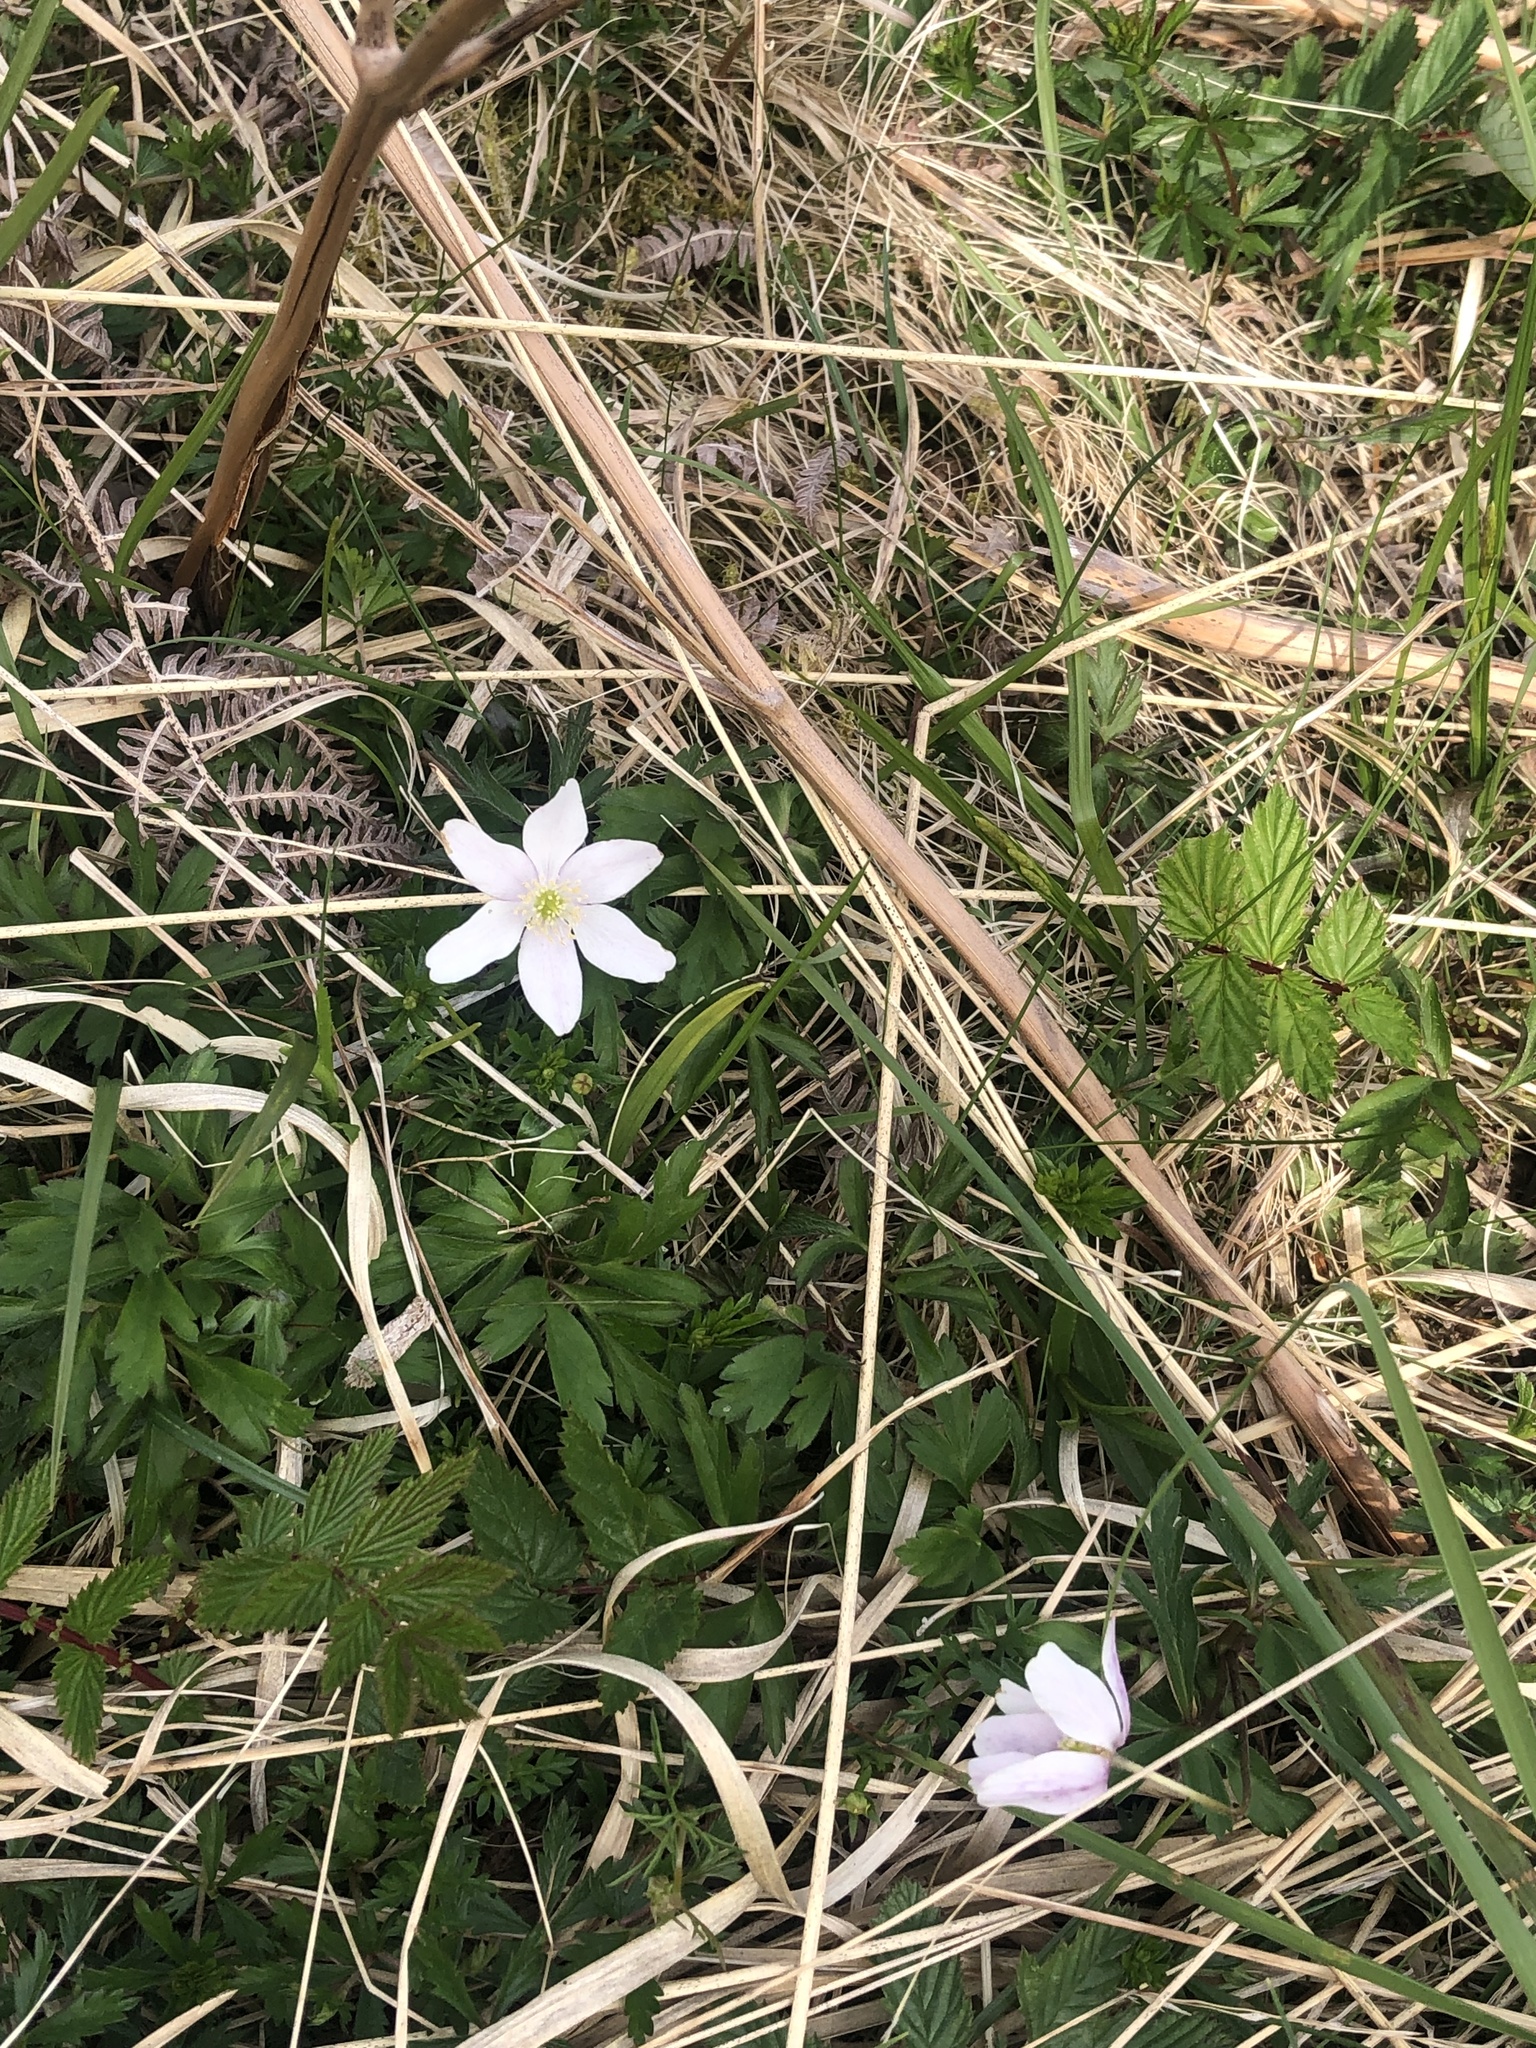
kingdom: Plantae
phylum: Tracheophyta
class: Magnoliopsida
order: Ranunculales
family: Ranunculaceae
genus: Anemone
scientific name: Anemone nemorosa
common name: Wood anemone
